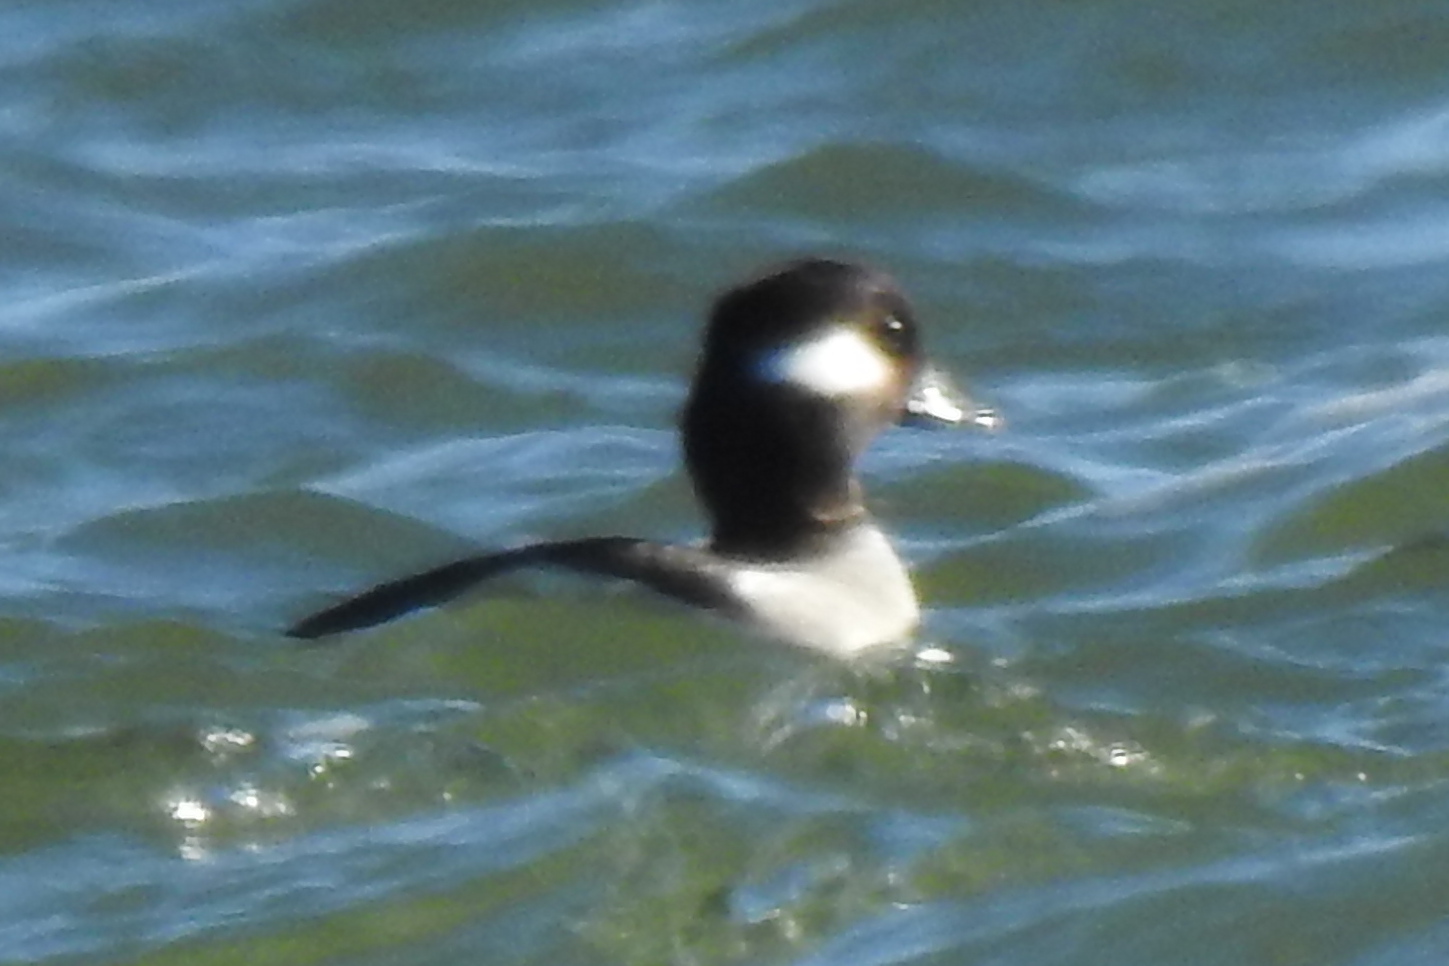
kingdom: Animalia
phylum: Chordata
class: Aves
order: Anseriformes
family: Anatidae
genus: Bucephala
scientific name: Bucephala albeola
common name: Bufflehead
